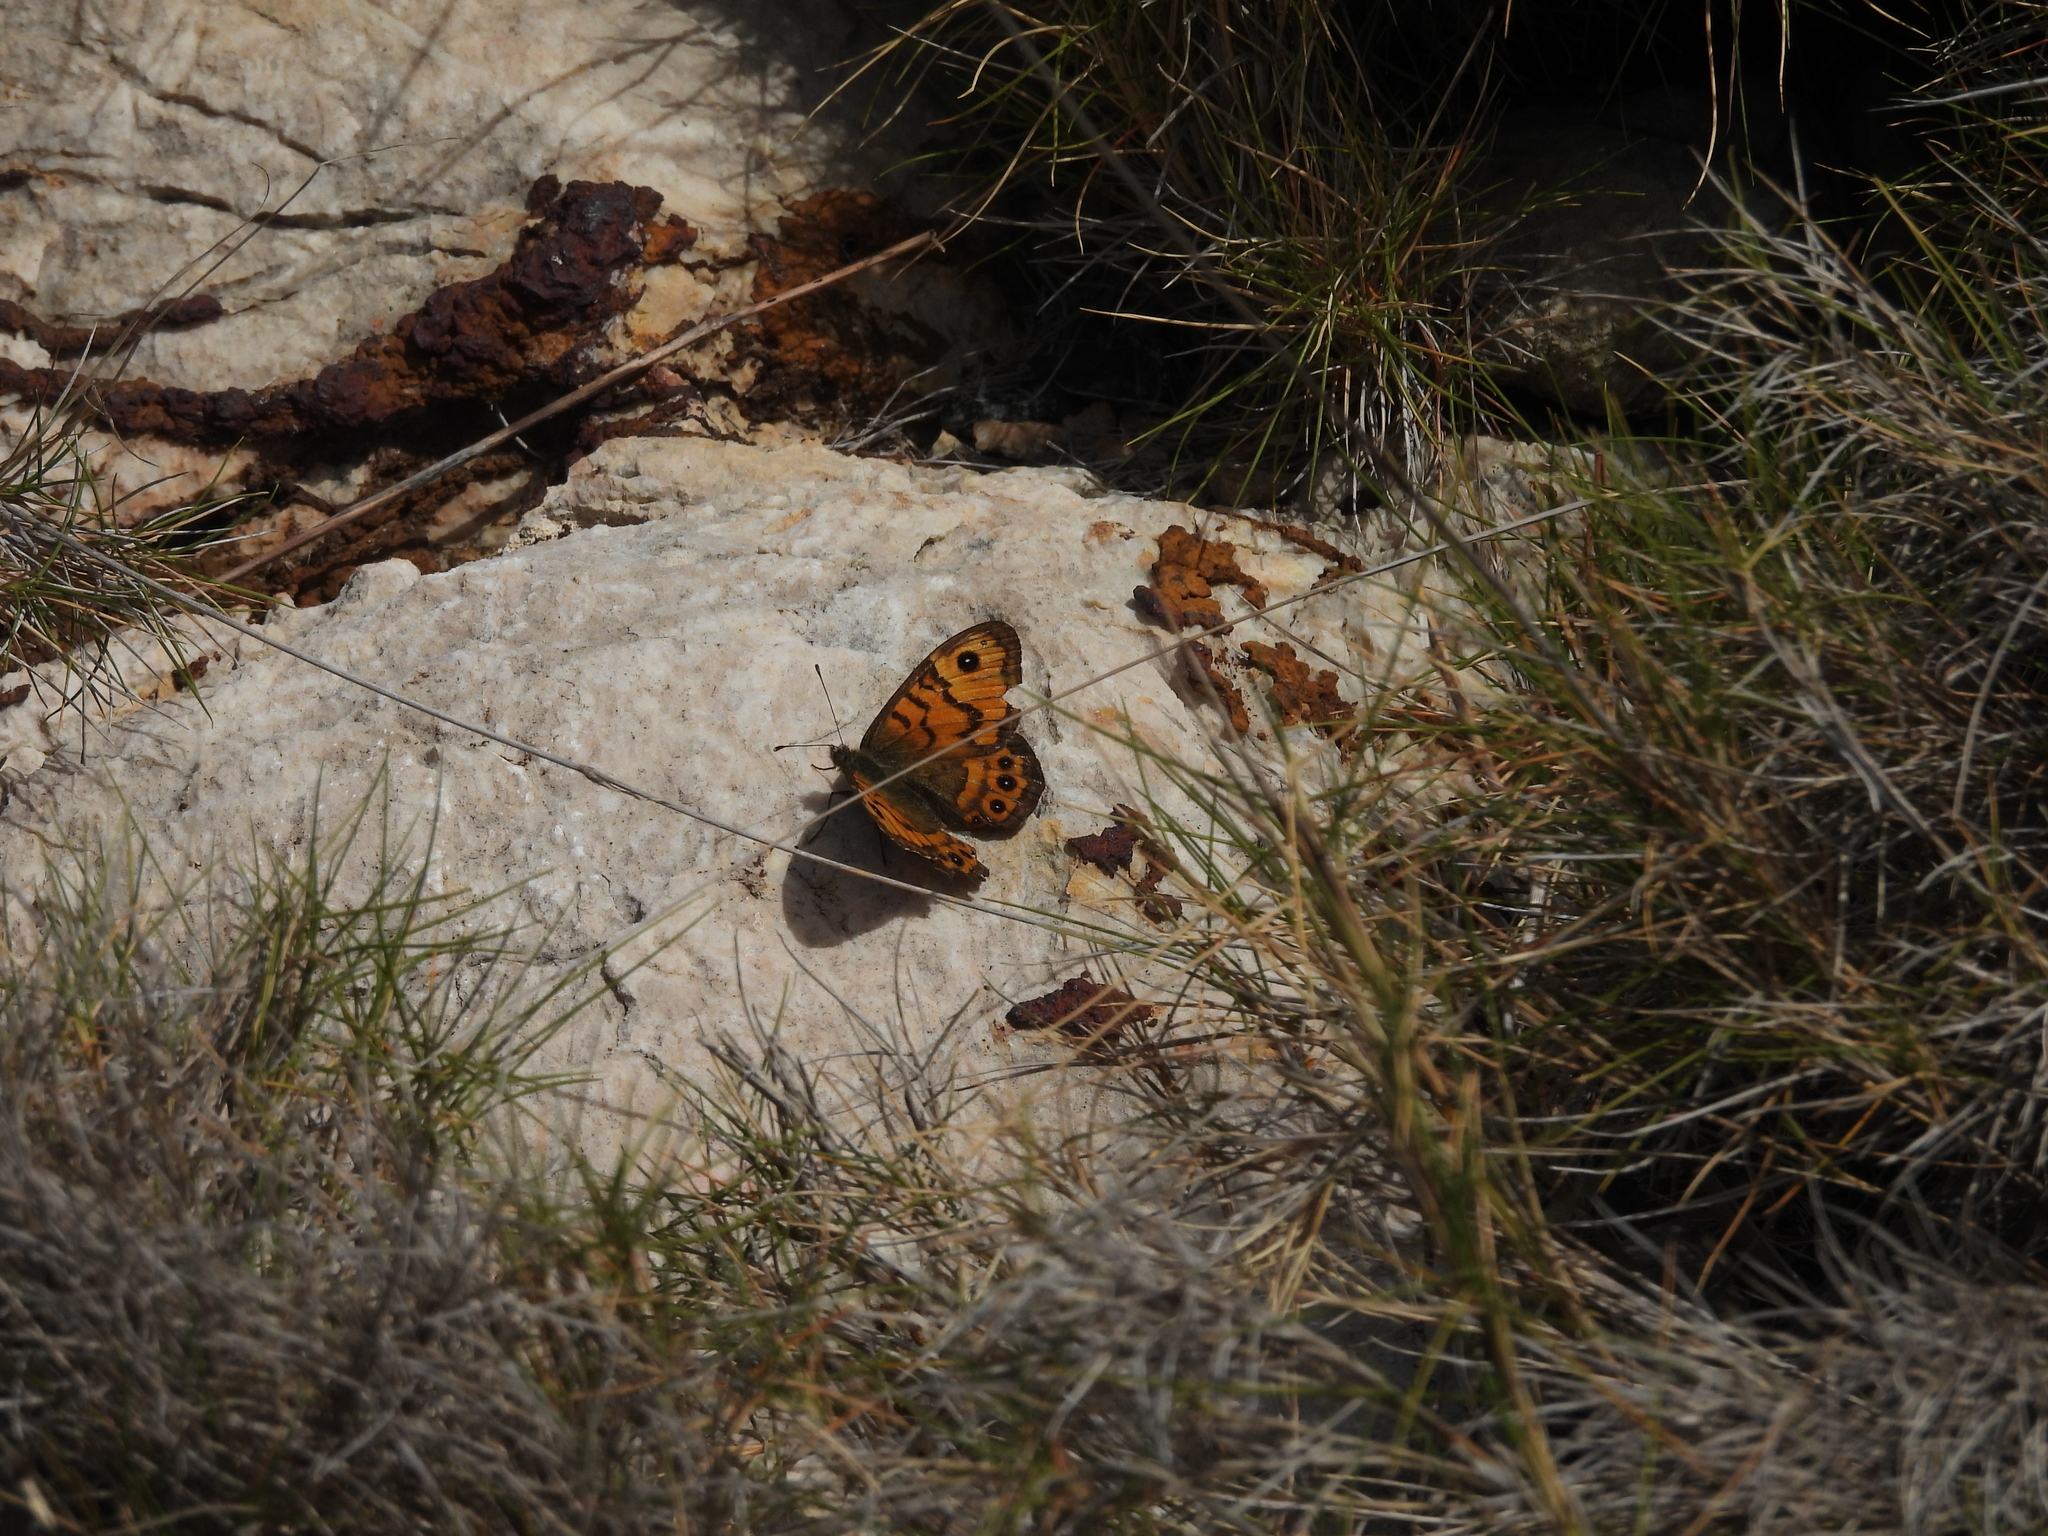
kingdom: Animalia
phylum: Arthropoda
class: Insecta
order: Lepidoptera
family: Nymphalidae
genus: Pararge
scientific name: Pararge Lasiommata megera
